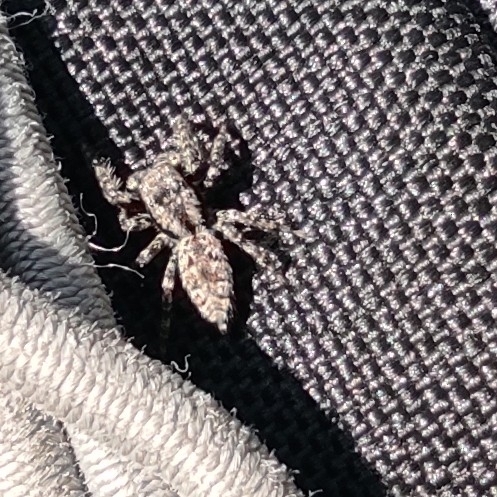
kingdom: Animalia
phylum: Arthropoda
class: Arachnida
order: Araneae
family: Salticidae
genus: Marpissa
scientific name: Marpissa muscosa
